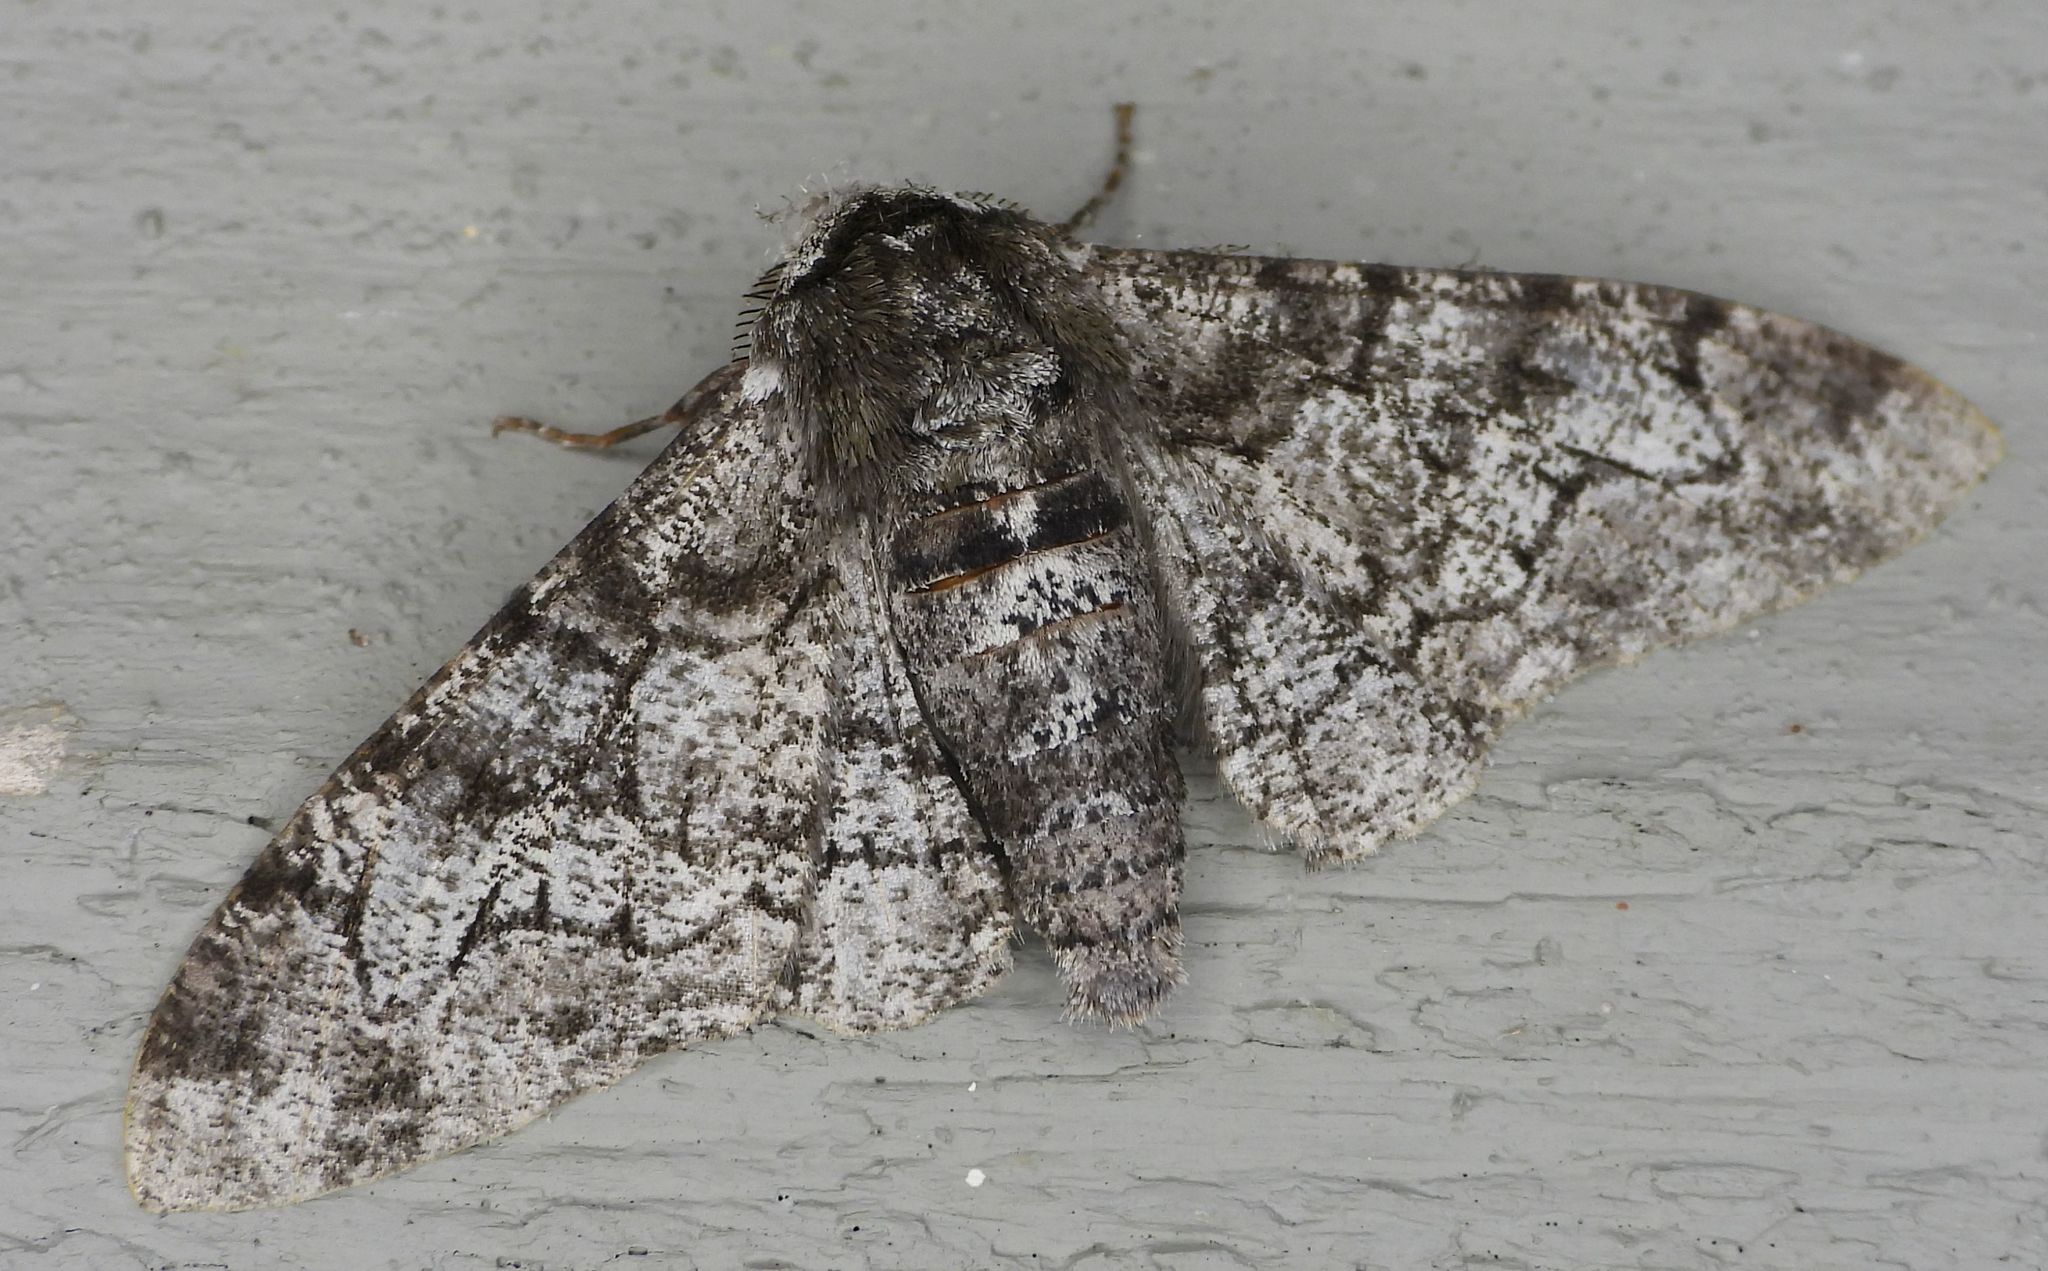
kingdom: Animalia
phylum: Arthropoda
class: Insecta
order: Lepidoptera
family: Geometridae
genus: Biston
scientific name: Biston betularia
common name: Peppered moth
